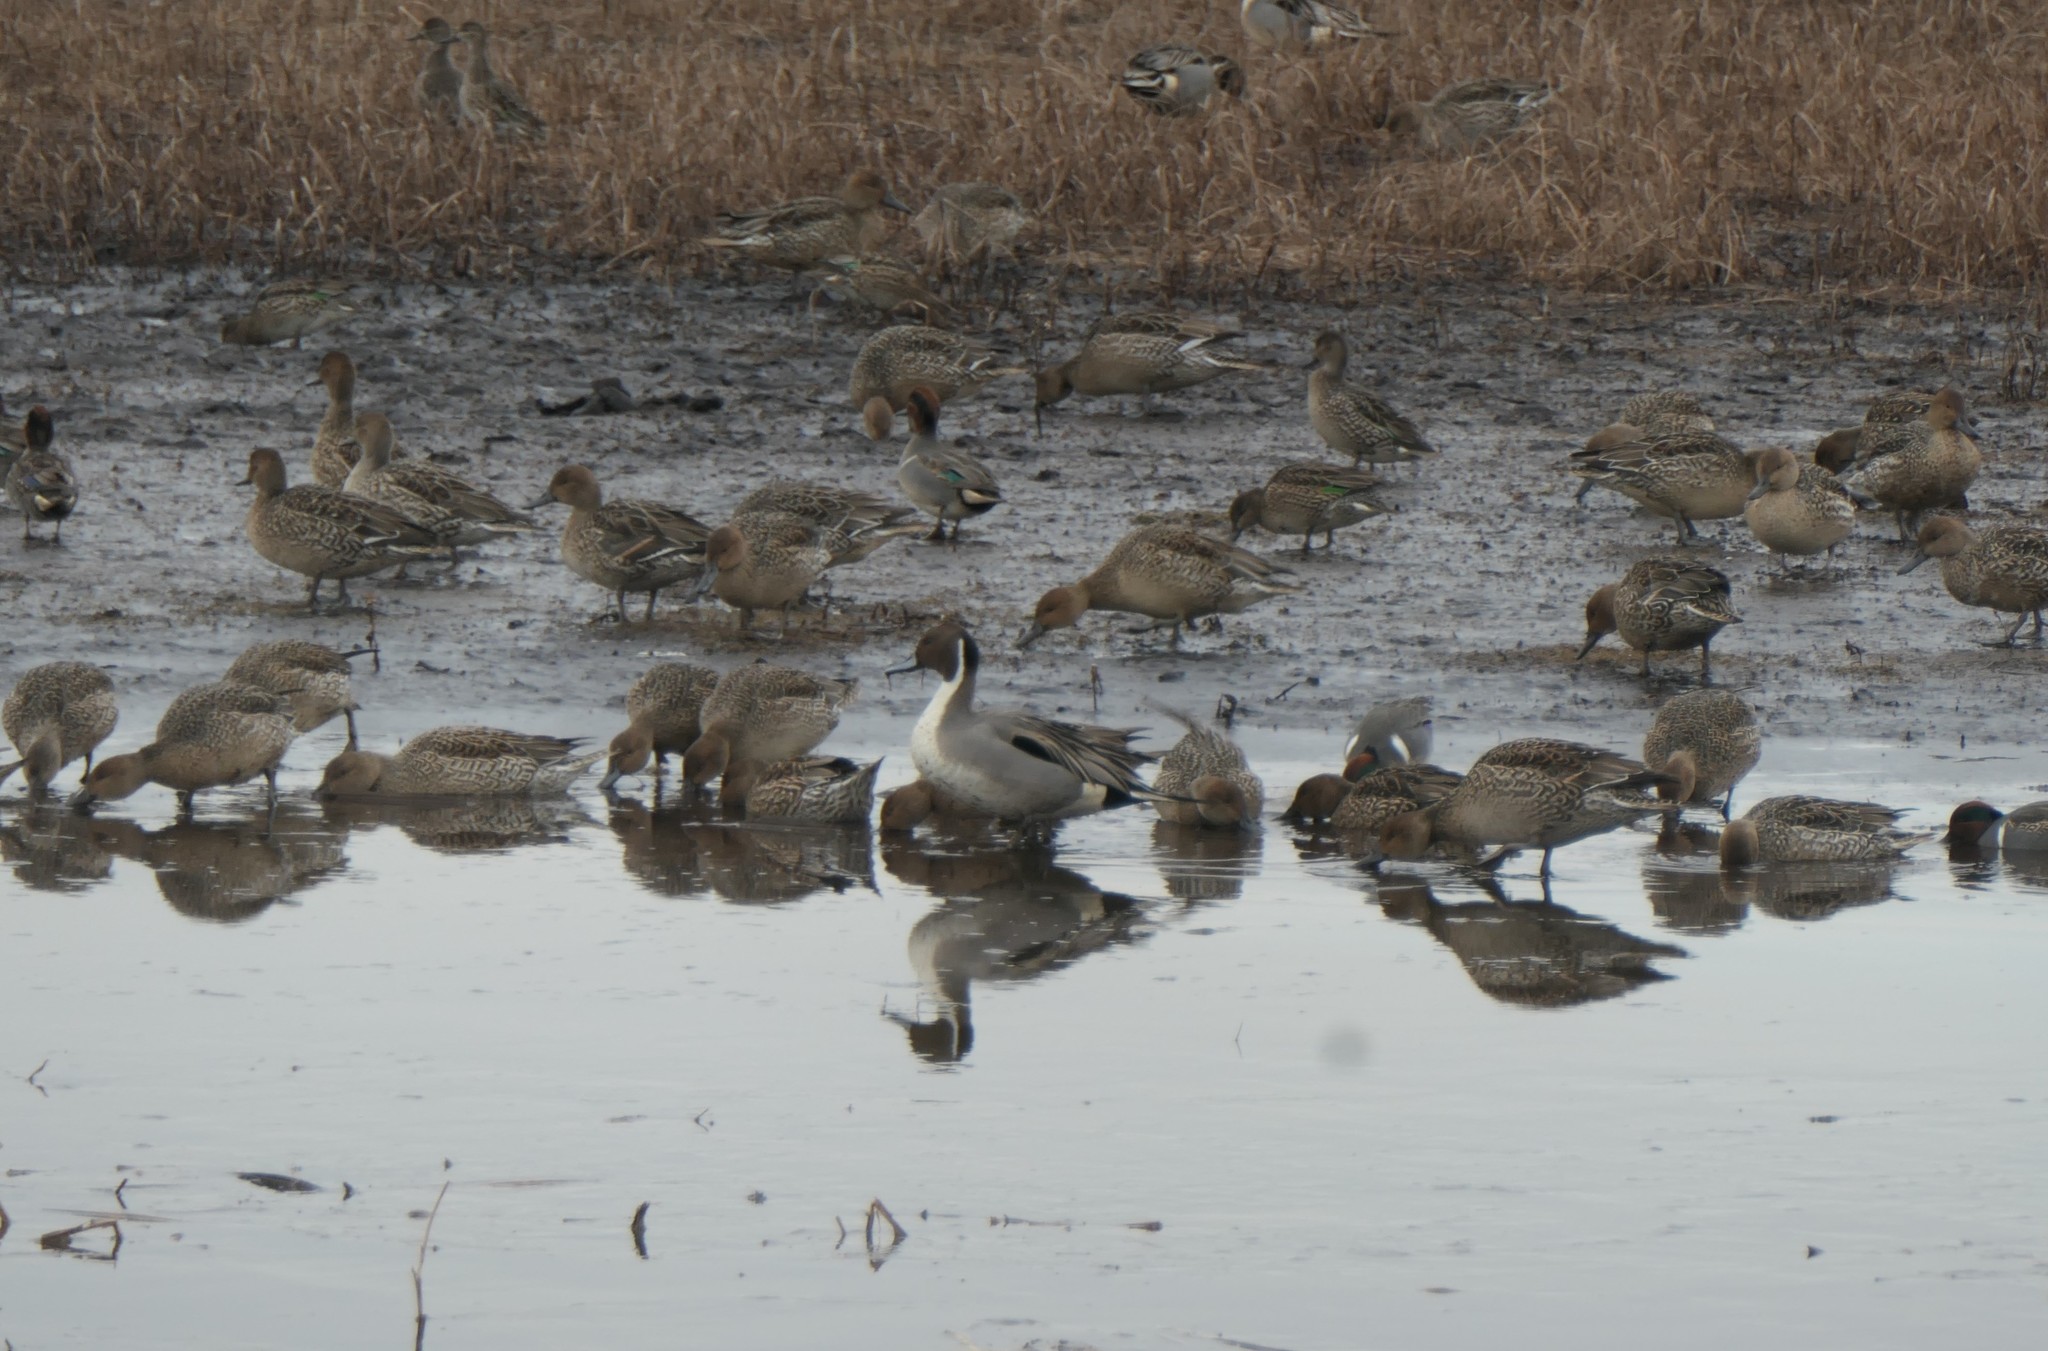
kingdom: Animalia
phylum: Chordata
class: Aves
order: Anseriformes
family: Anatidae
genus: Anas
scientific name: Anas acuta
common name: Northern pintail
